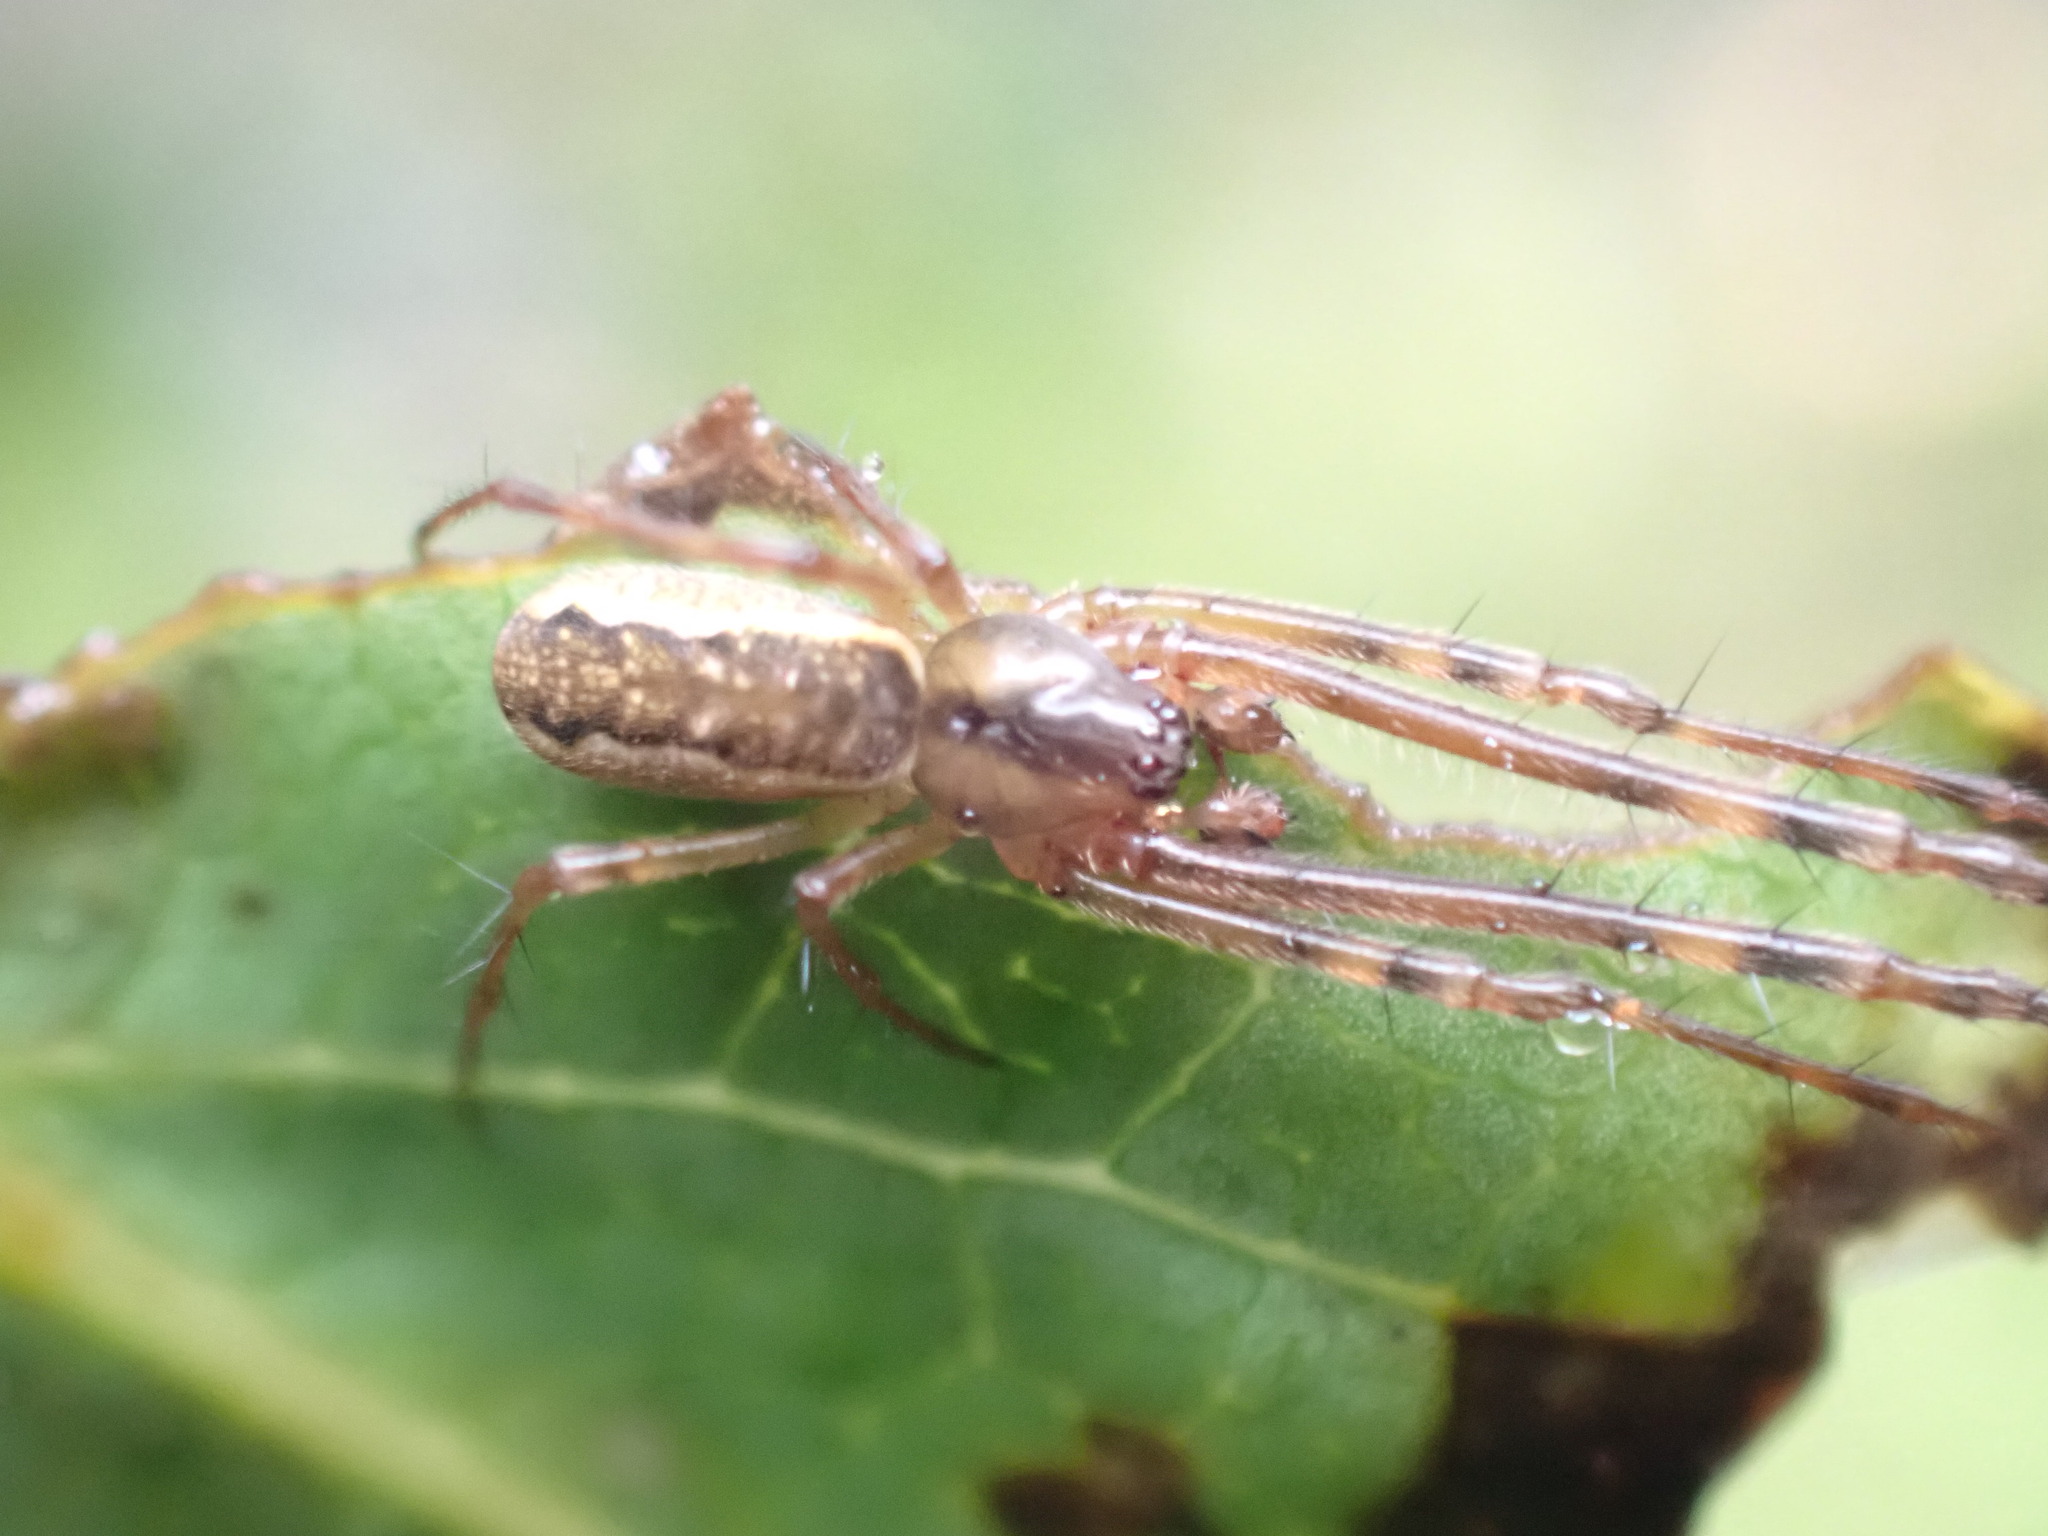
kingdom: Animalia
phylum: Arthropoda
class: Arachnida
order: Araneae
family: Tetragnathidae
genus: Nanometa
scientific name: Nanometa lagenifera
